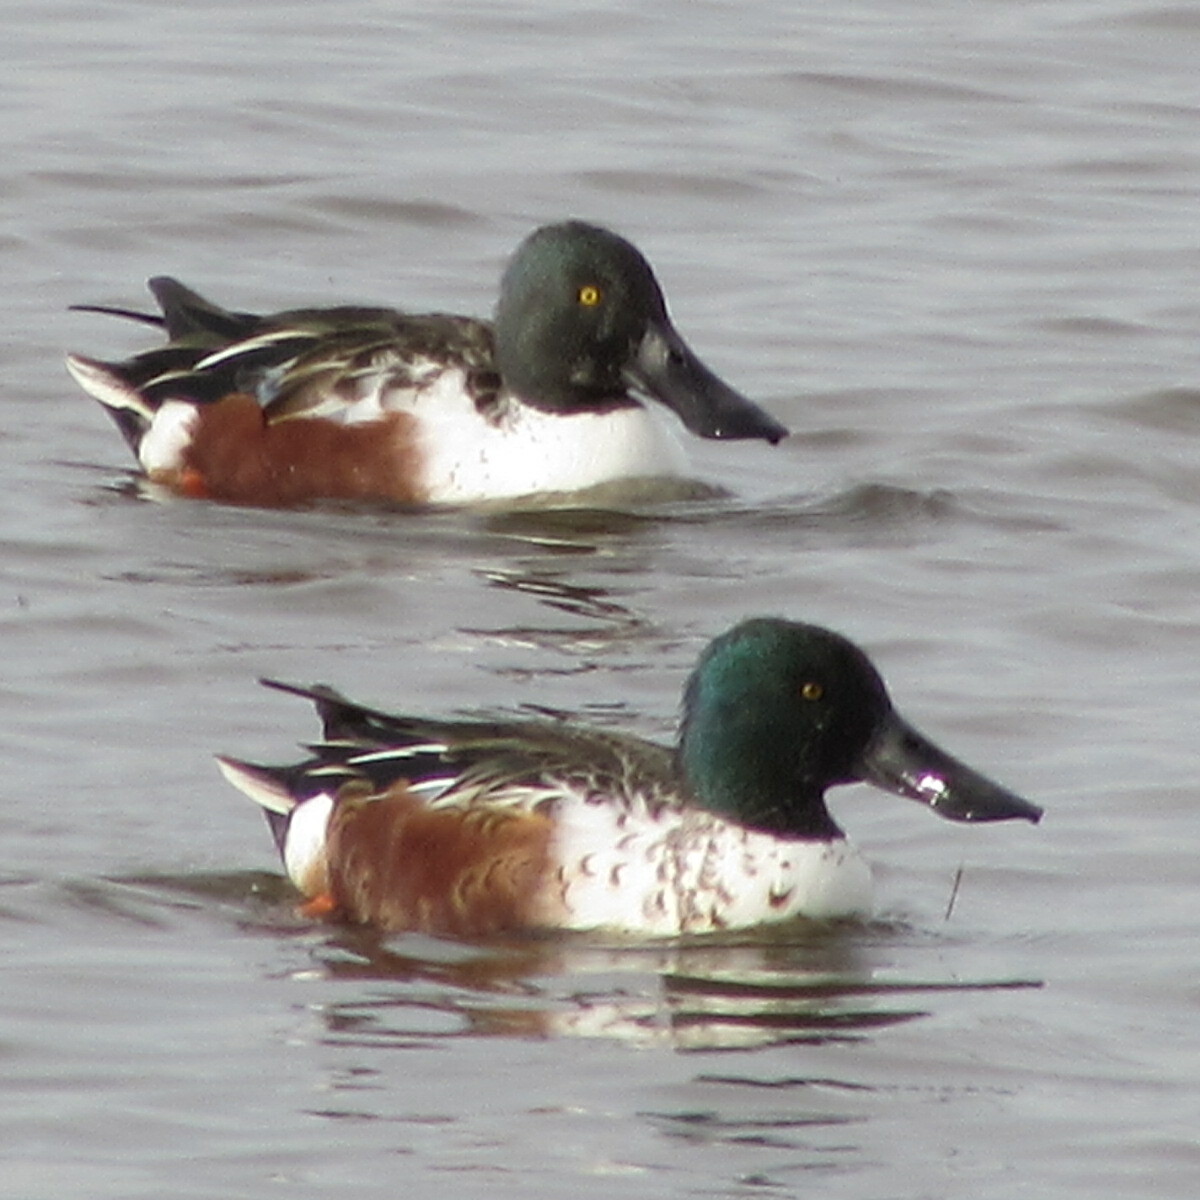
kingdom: Animalia
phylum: Chordata
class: Aves
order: Anseriformes
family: Anatidae
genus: Spatula
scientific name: Spatula clypeata
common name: Northern shoveler
